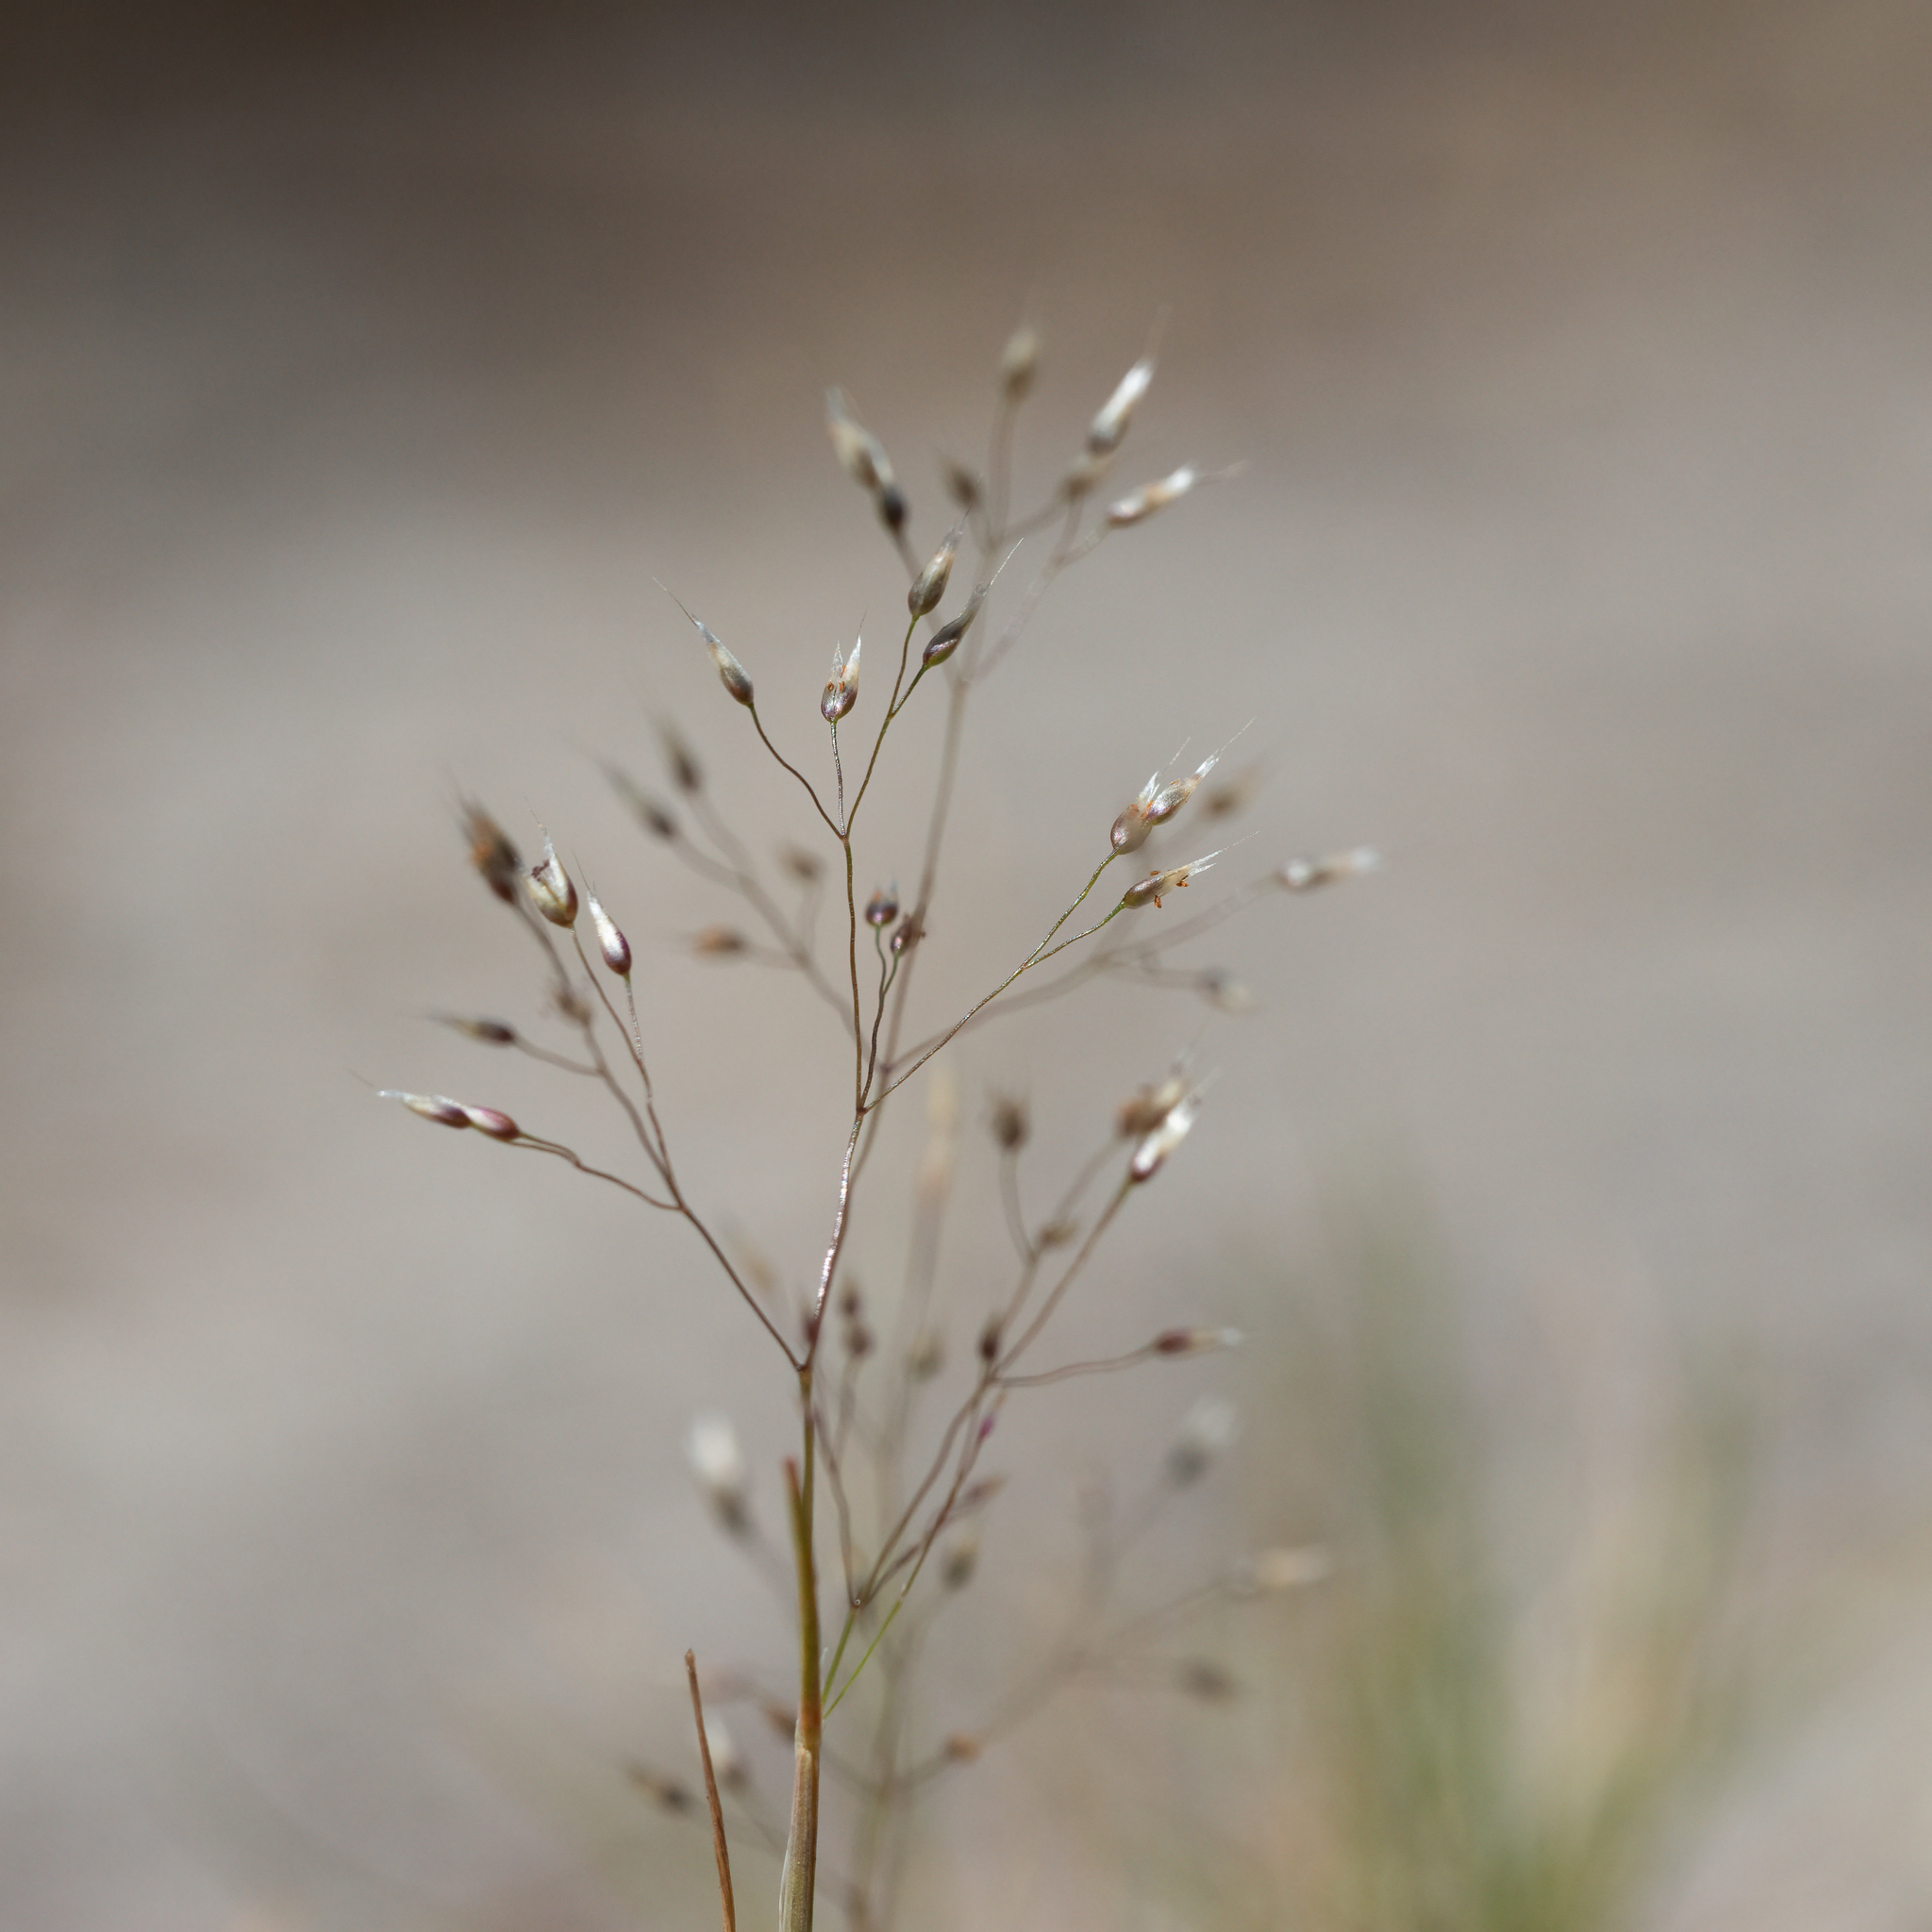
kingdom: Plantae
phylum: Tracheophyta
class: Liliopsida
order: Poales
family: Poaceae
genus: Aira
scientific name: Aira cupaniana
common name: Silver hairgrass
